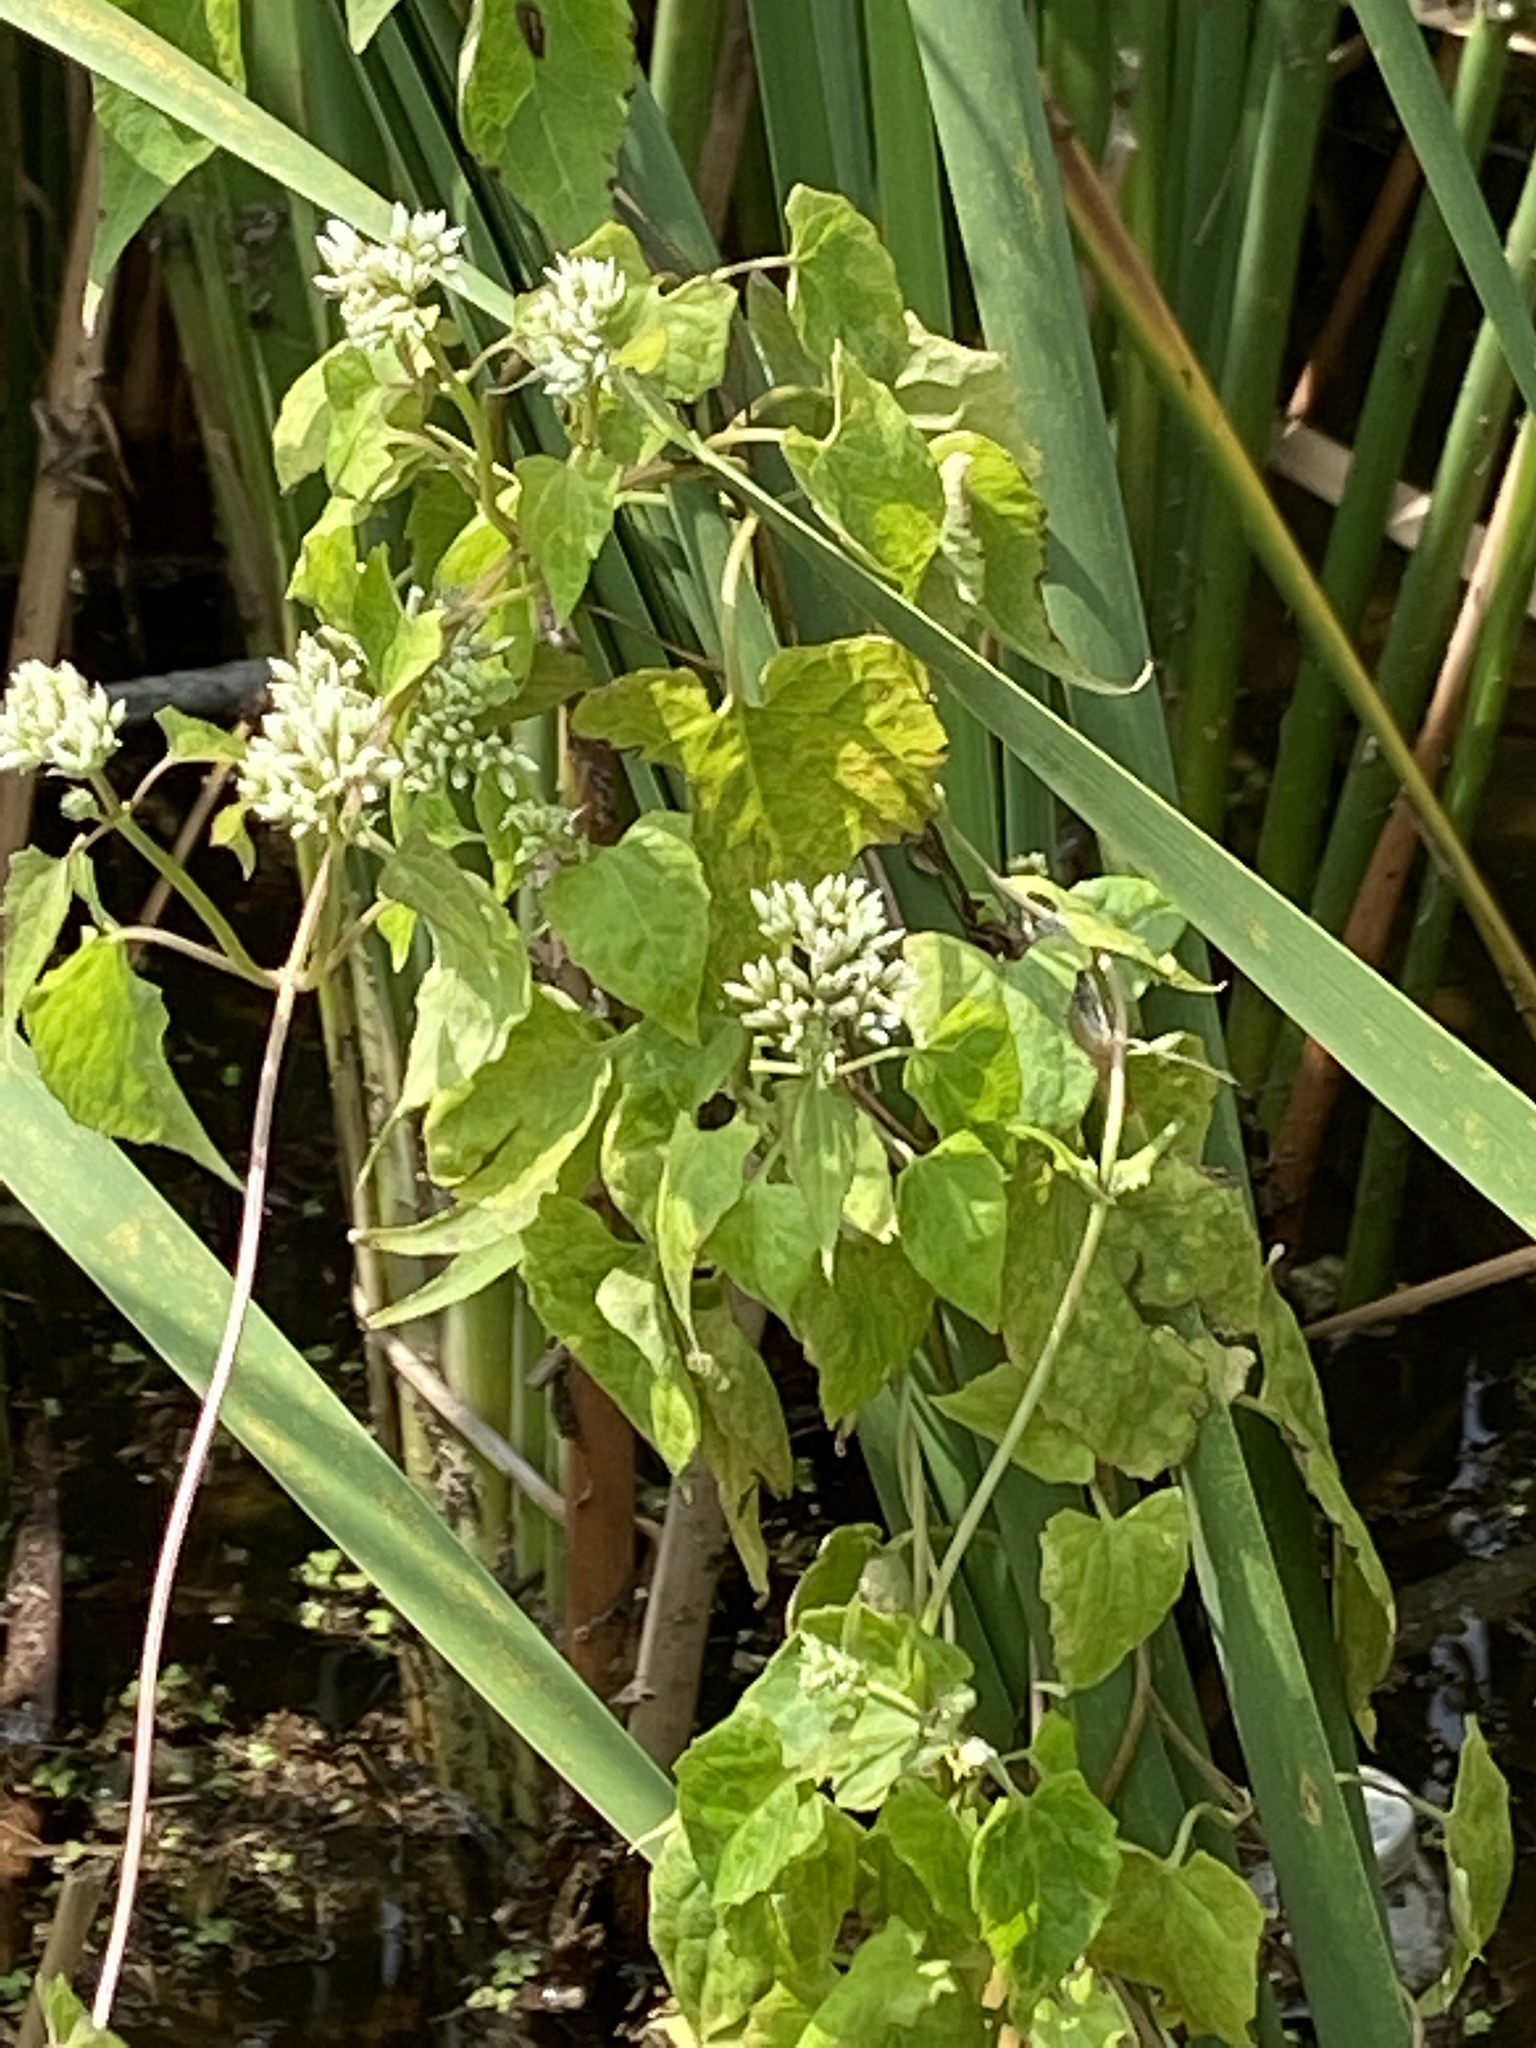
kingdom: Plantae
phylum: Tracheophyta
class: Magnoliopsida
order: Asterales
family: Asteraceae
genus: Mikania
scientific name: Mikania scandens
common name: Climbing hempvine
